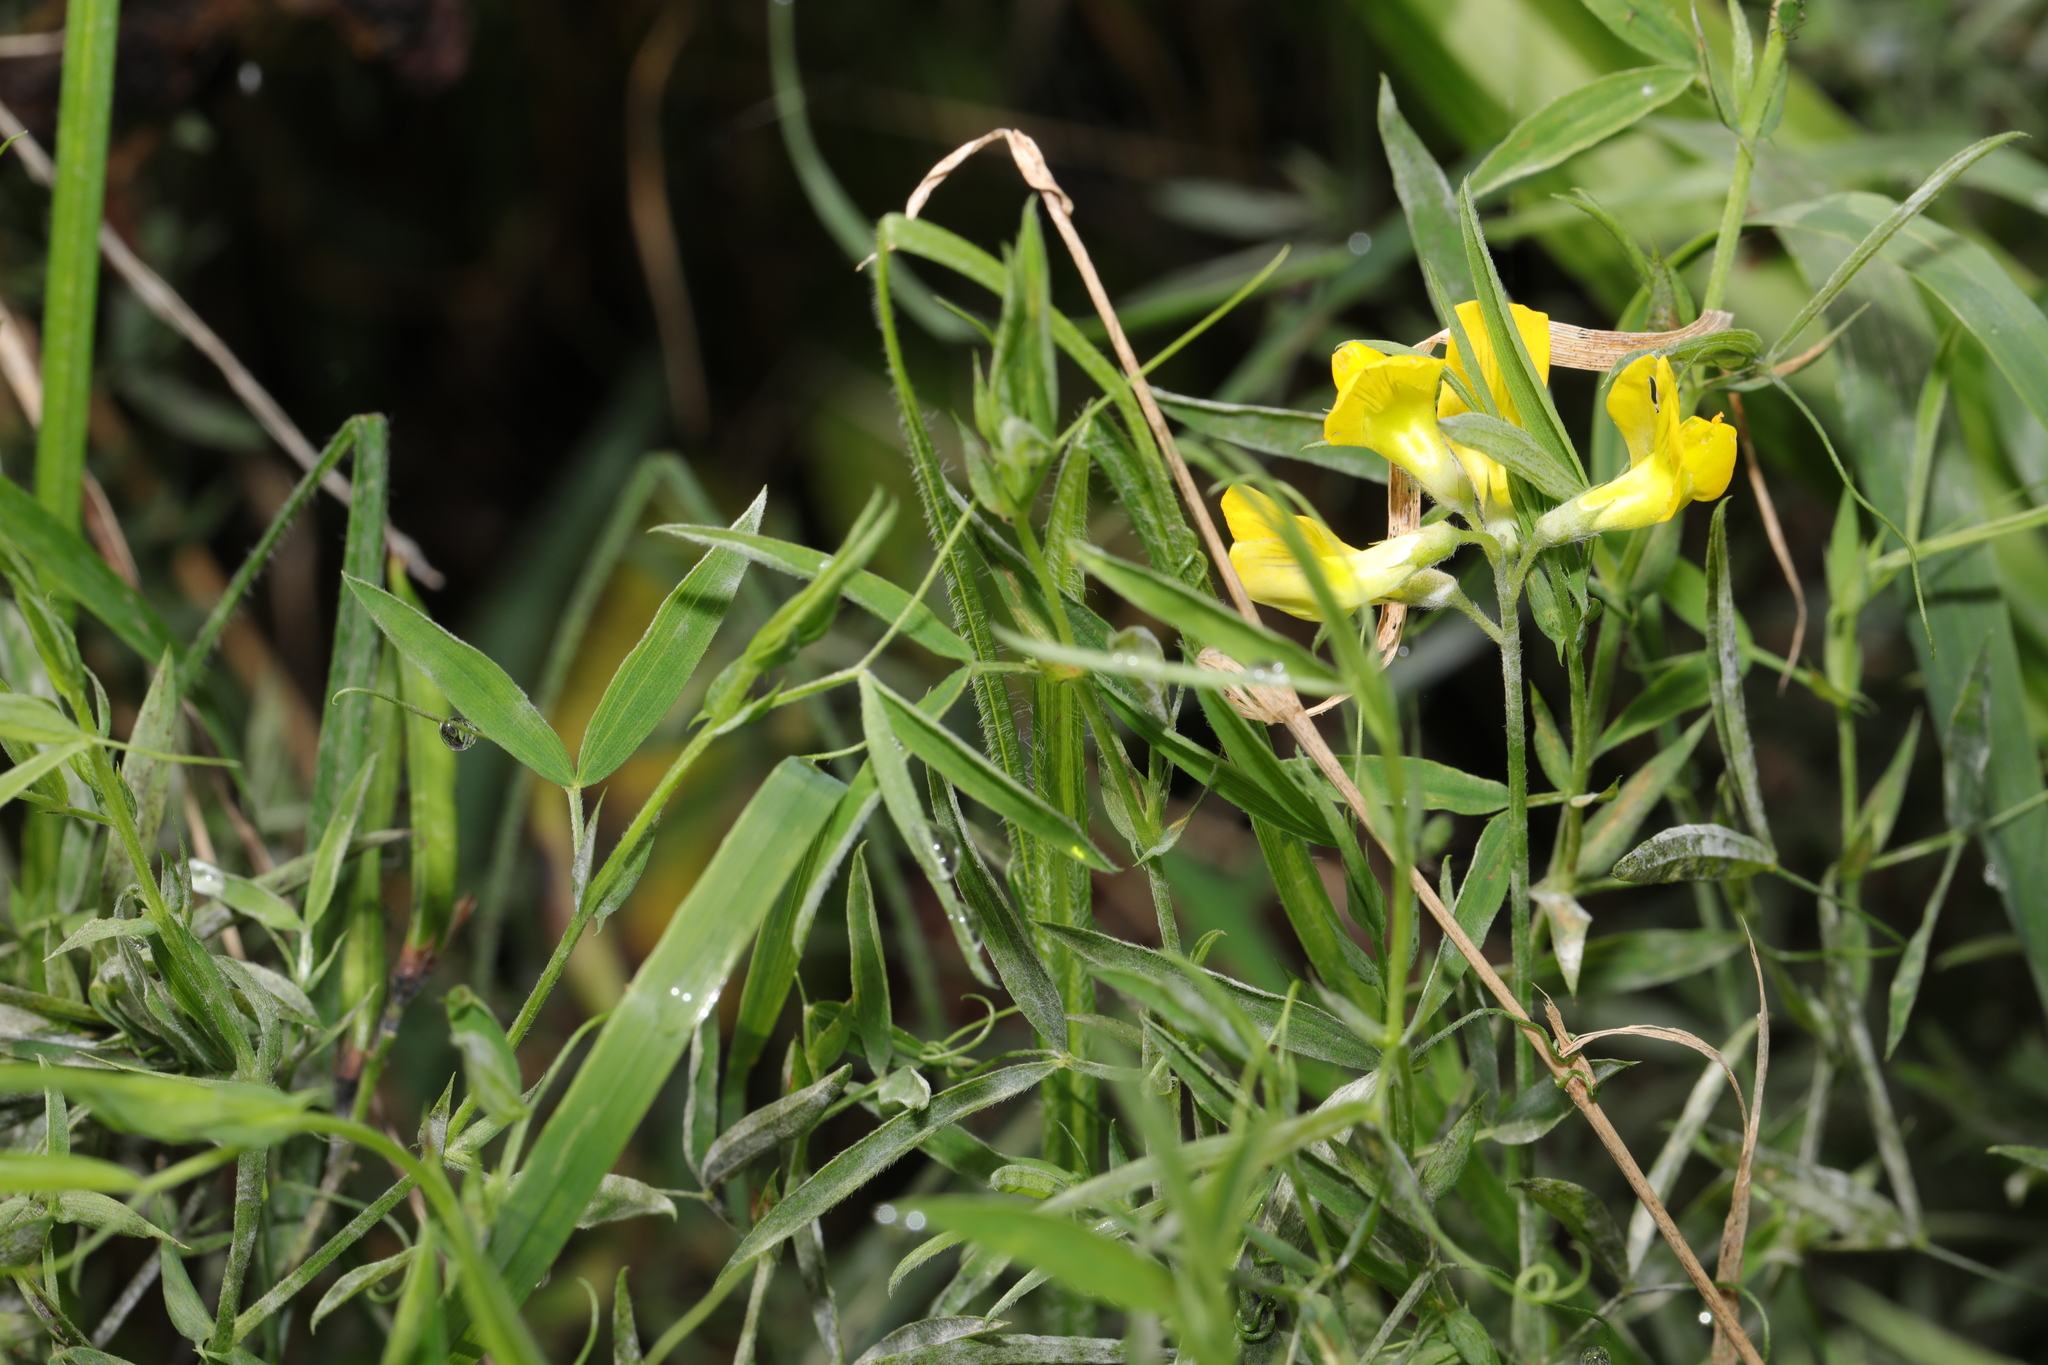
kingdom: Plantae
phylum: Tracheophyta
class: Magnoliopsida
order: Fabales
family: Fabaceae
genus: Lathyrus
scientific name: Lathyrus pratensis
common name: Meadow vetchling
